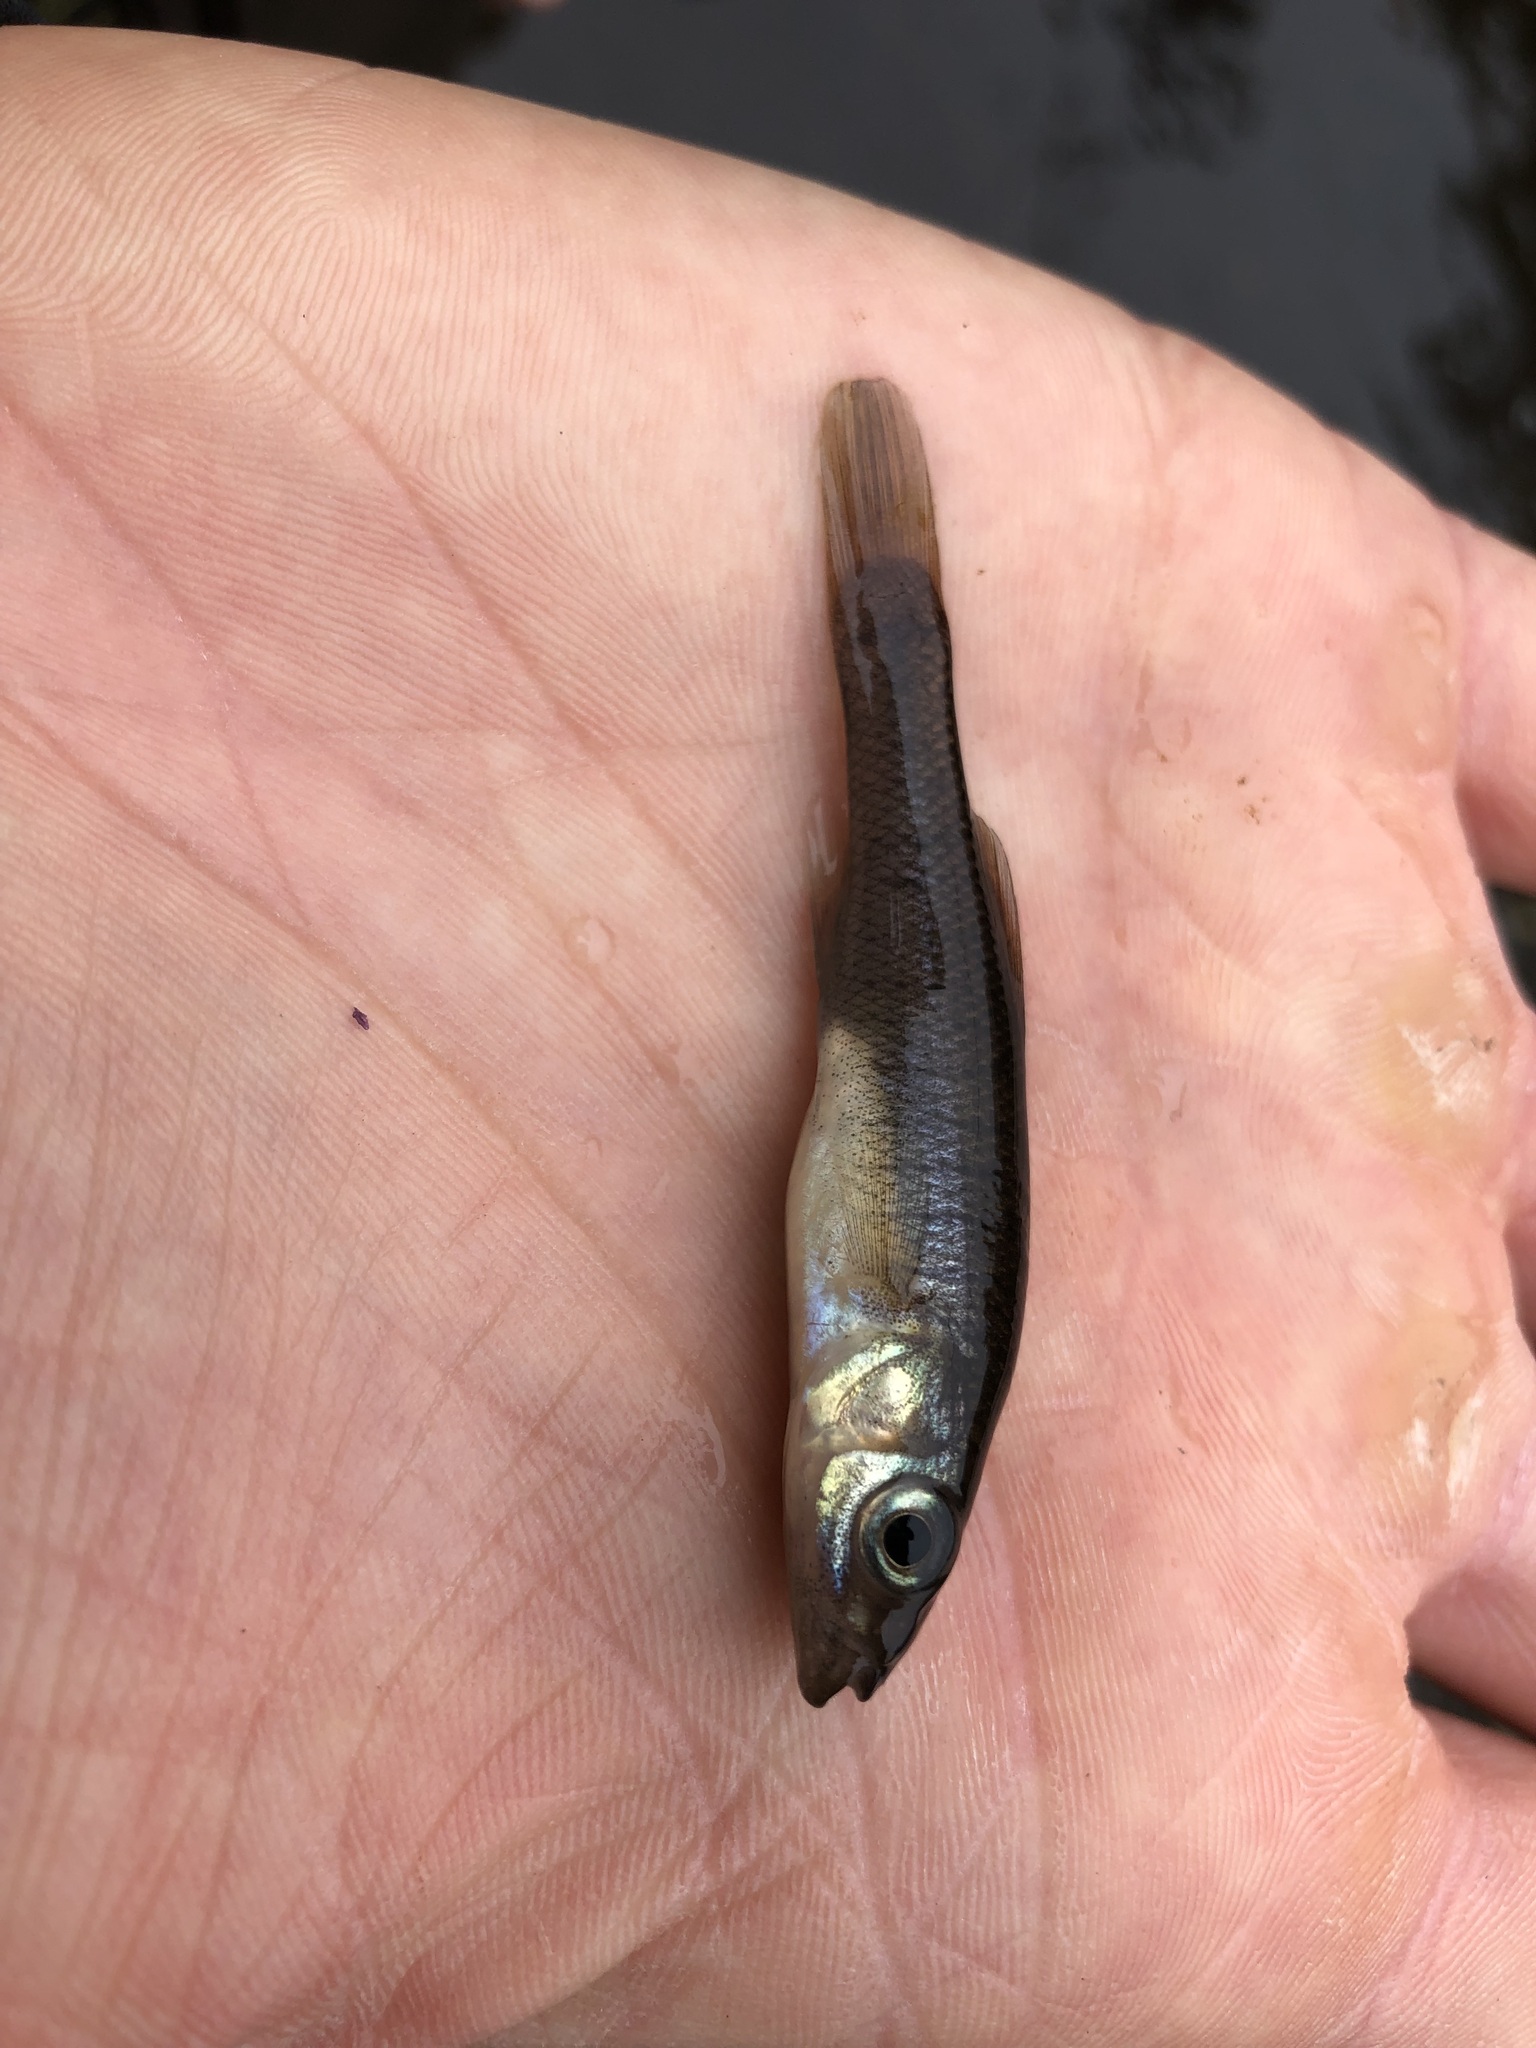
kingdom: Animalia
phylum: Chordata
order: Cyprinodontiformes
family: Fundulidae
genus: Fundulus
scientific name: Fundulus heteroclitus
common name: Mummichog
